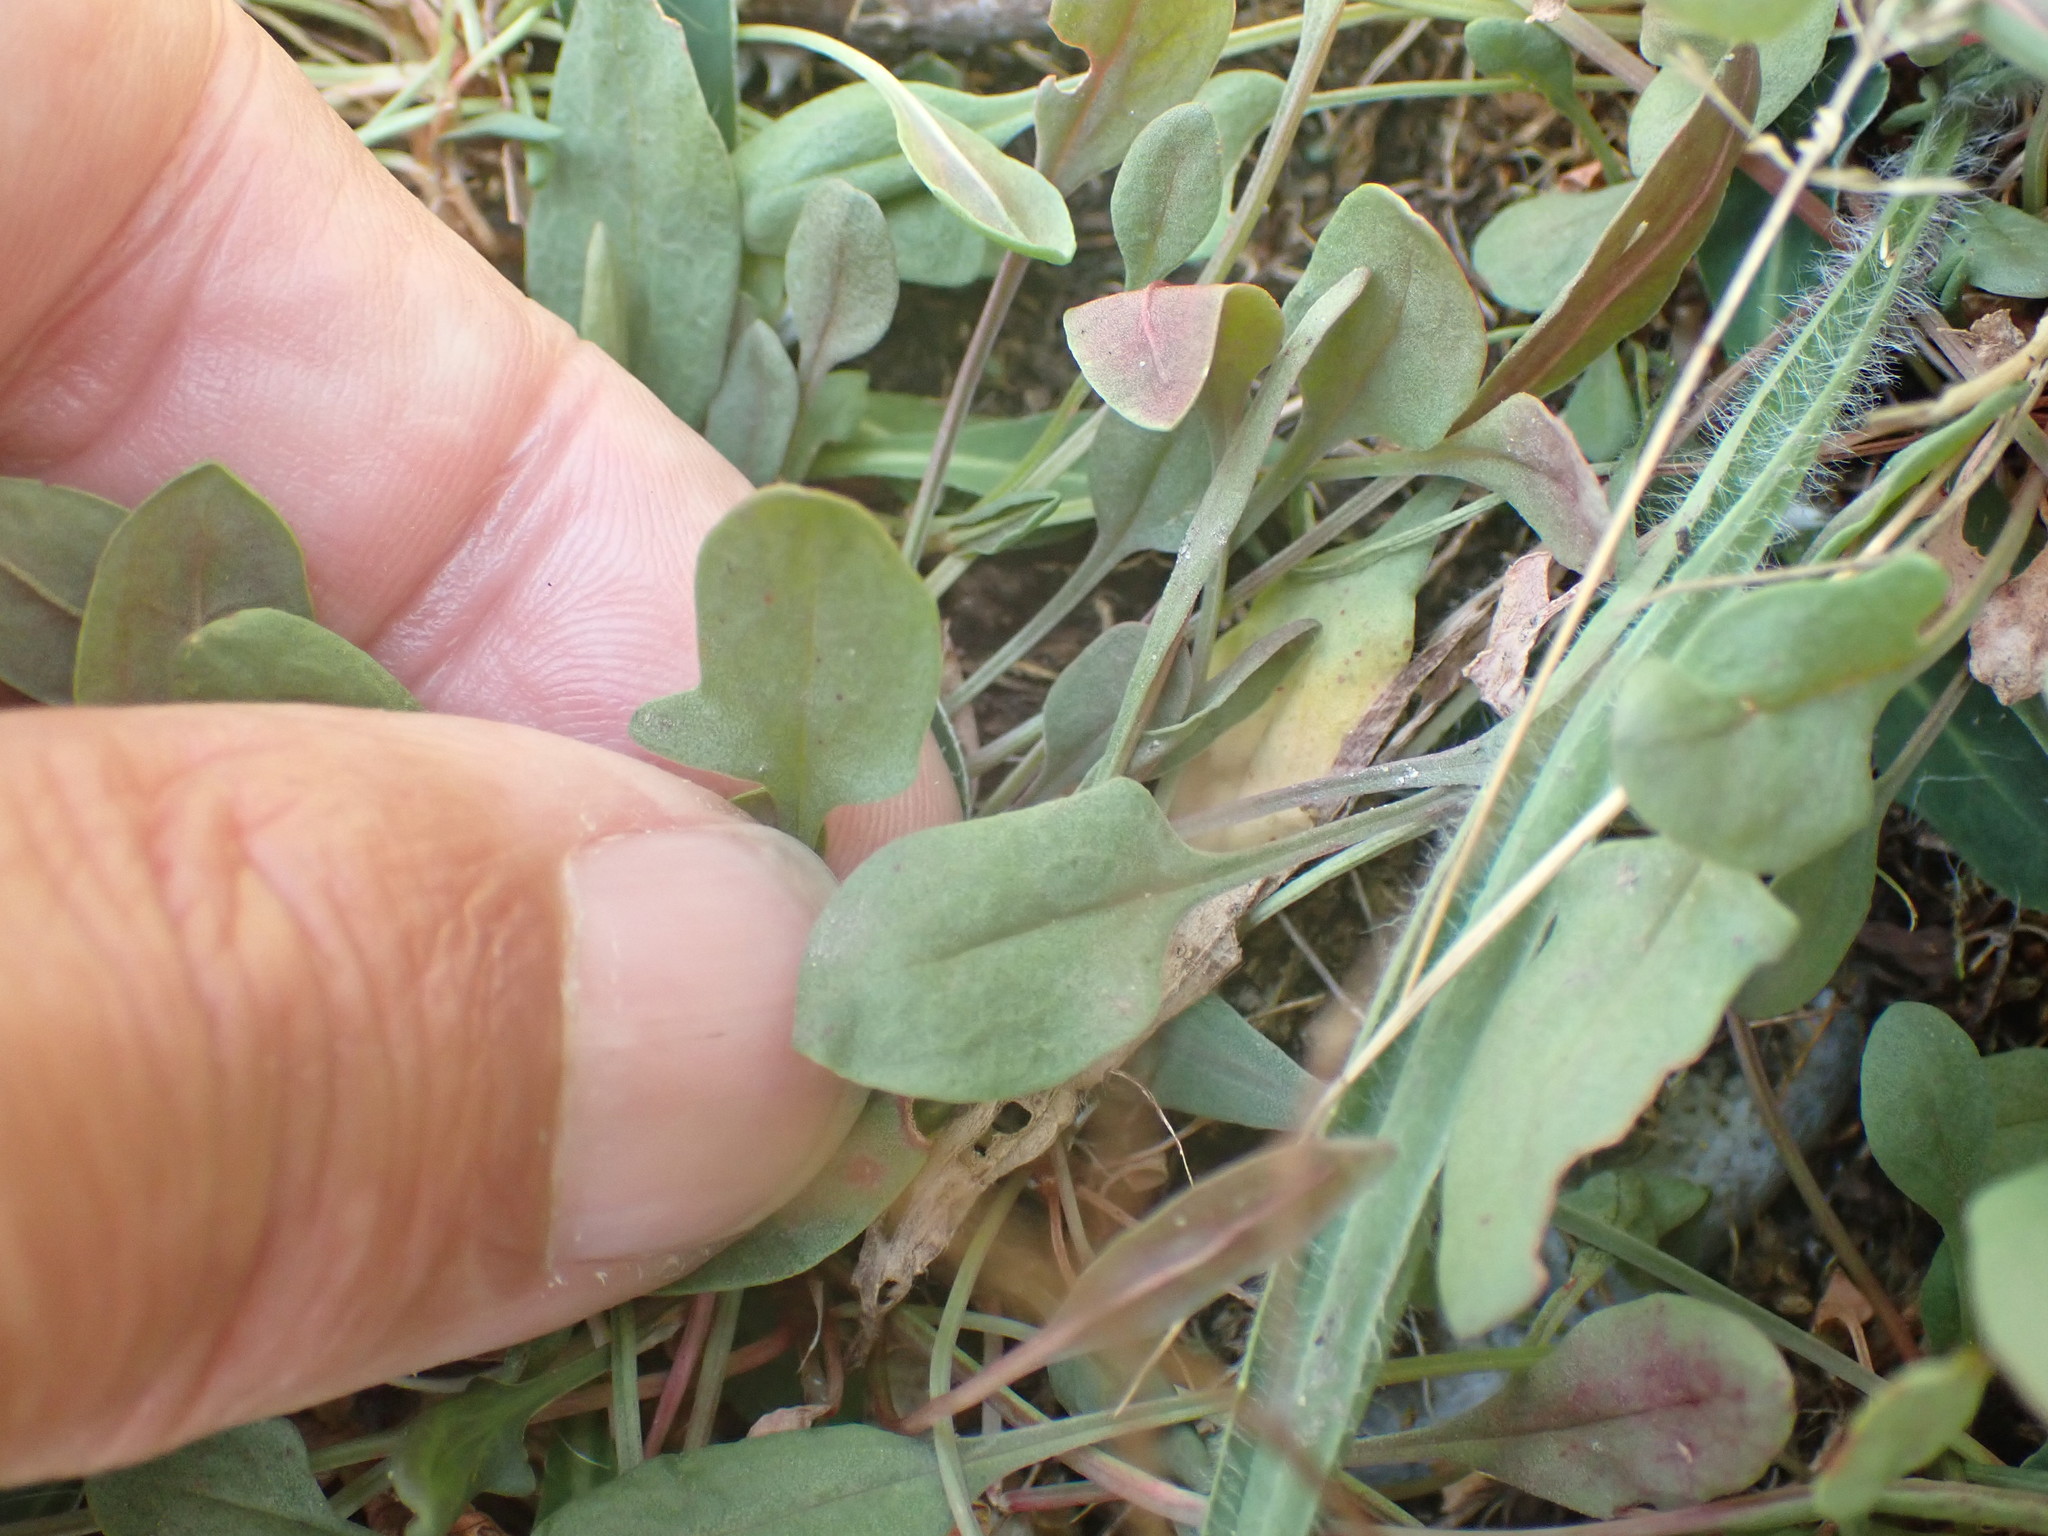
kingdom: Plantae
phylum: Tracheophyta
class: Magnoliopsida
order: Caryophyllales
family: Polygonaceae
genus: Rumex
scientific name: Rumex acetosella
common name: Common sheep sorrel
